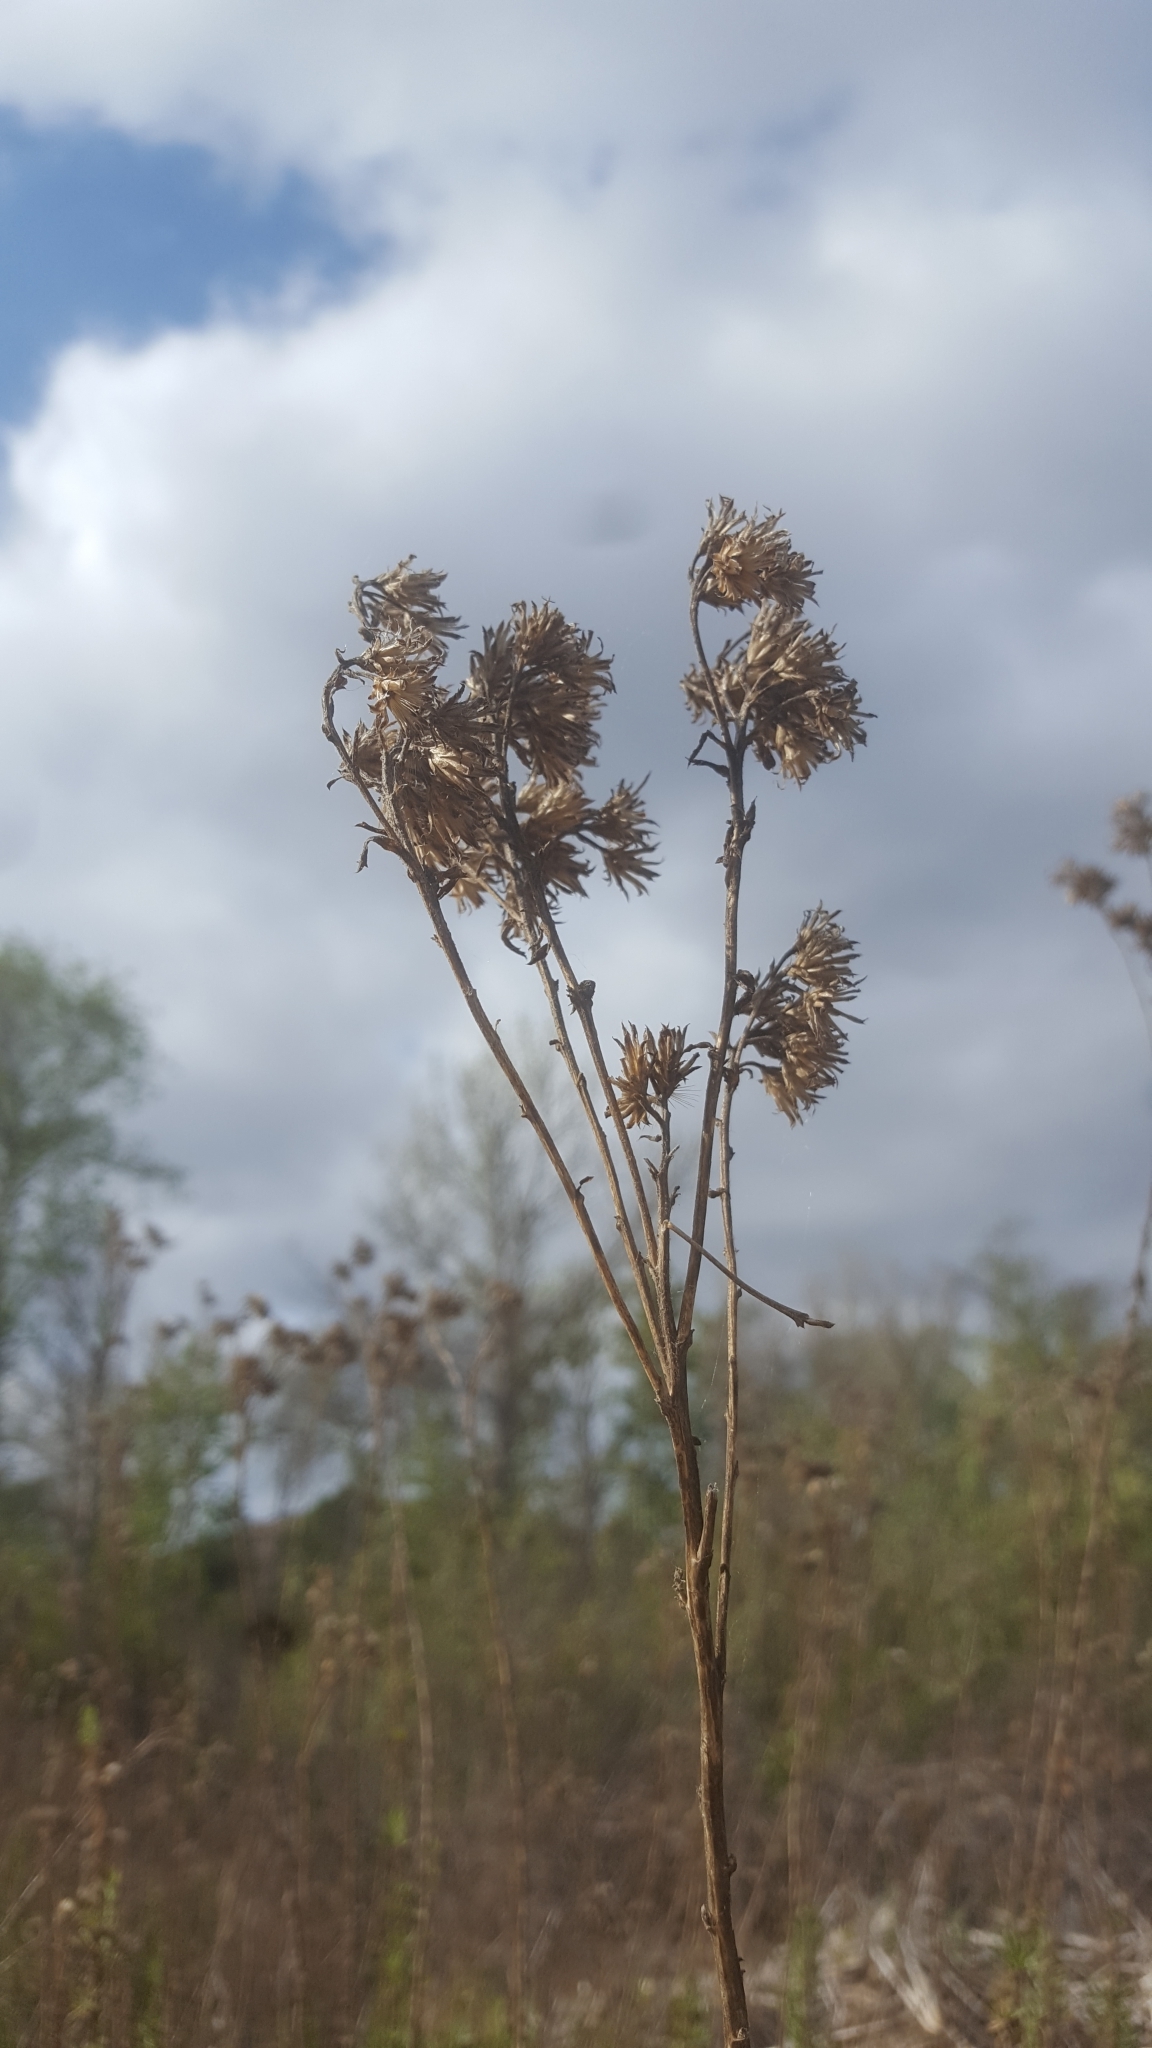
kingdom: Plantae
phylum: Tracheophyta
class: Magnoliopsida
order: Asterales
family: Asteraceae
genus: Isocoma
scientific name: Isocoma menziesii
